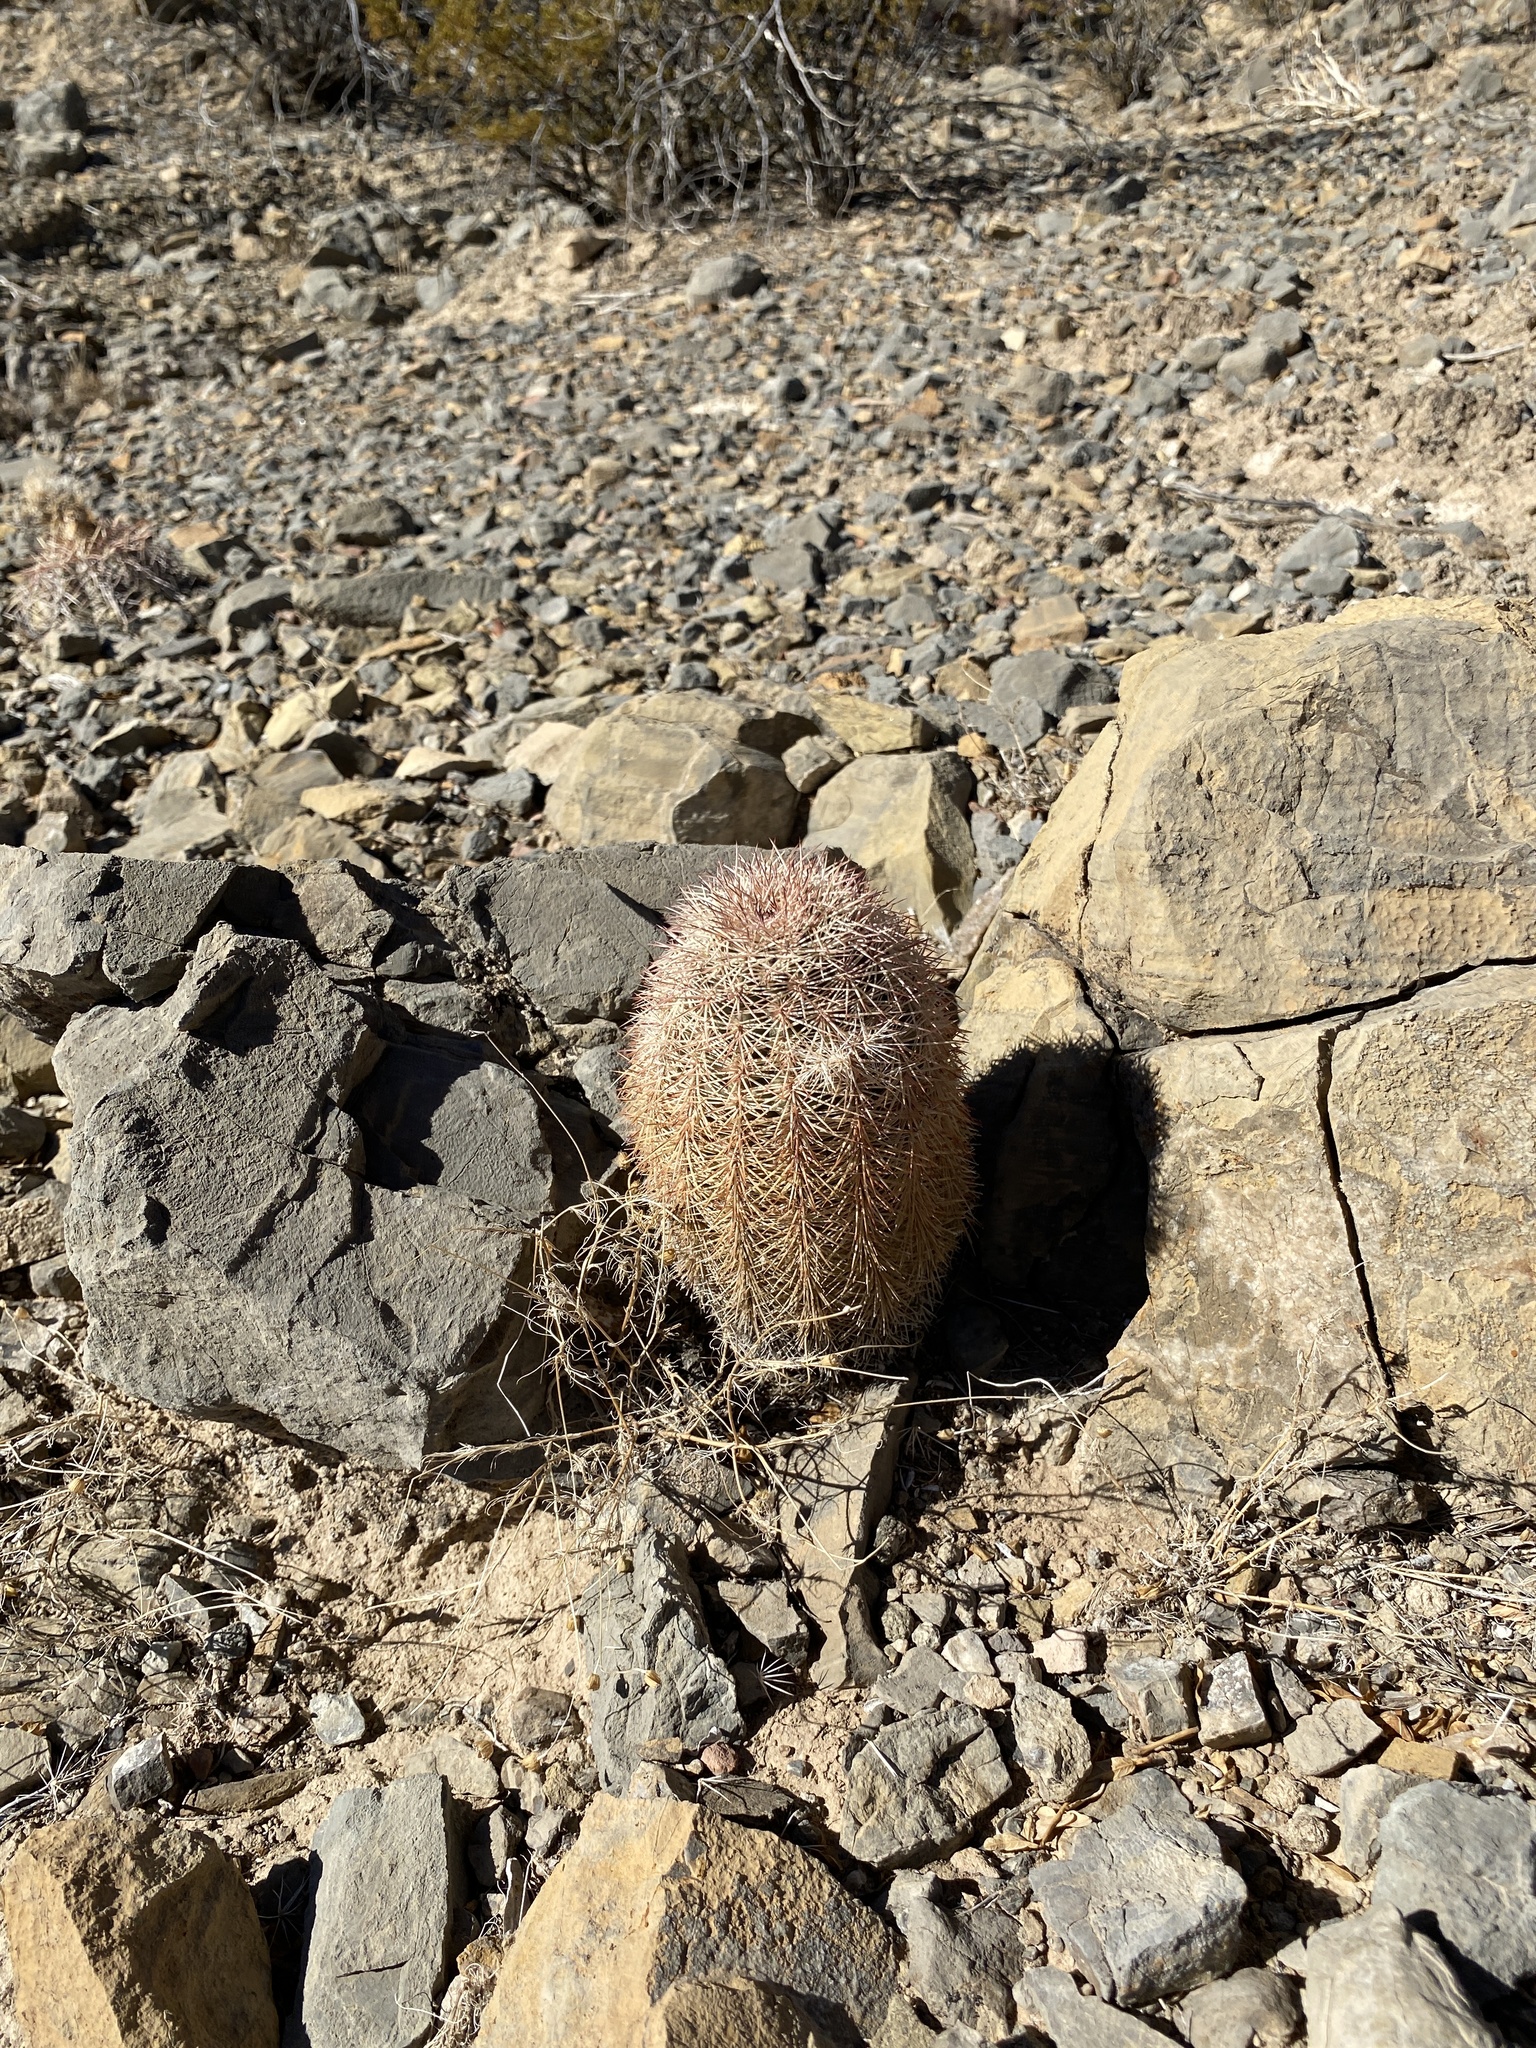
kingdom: Plantae
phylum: Tracheophyta
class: Magnoliopsida
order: Caryophyllales
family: Cactaceae
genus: Echinocereus
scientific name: Echinocereus dasyacanthus
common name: Spiny hedgehog cactus
